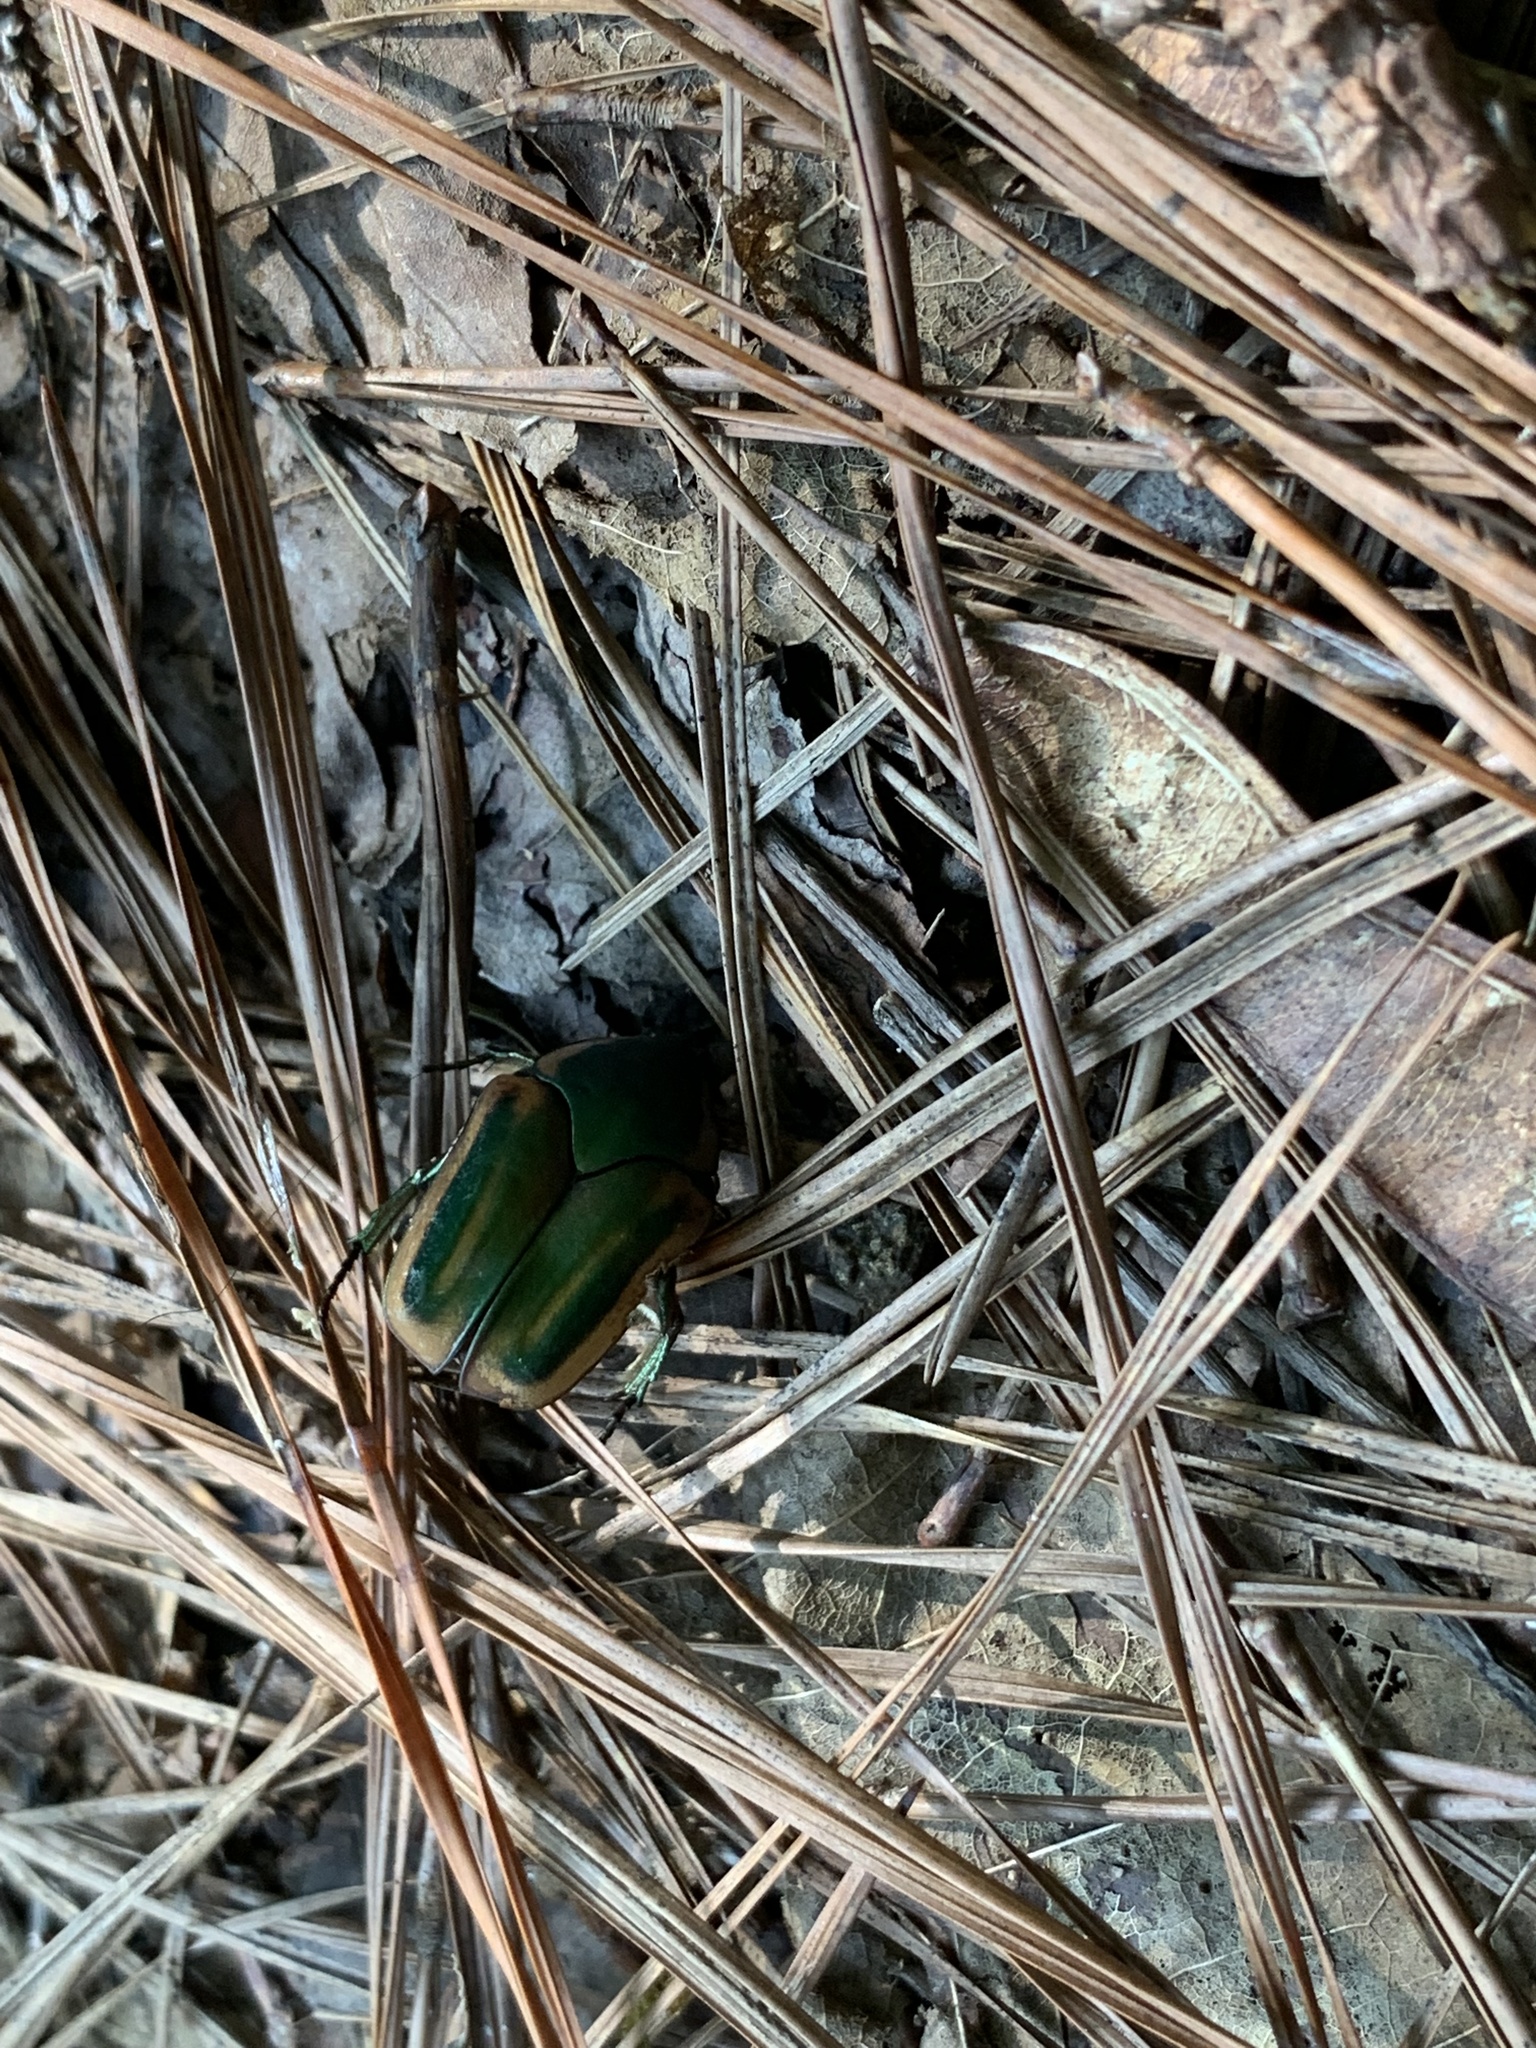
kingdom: Animalia
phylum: Arthropoda
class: Insecta
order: Coleoptera
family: Scarabaeidae
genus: Cotinis
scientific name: Cotinis nitida
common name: Common green june beetle
